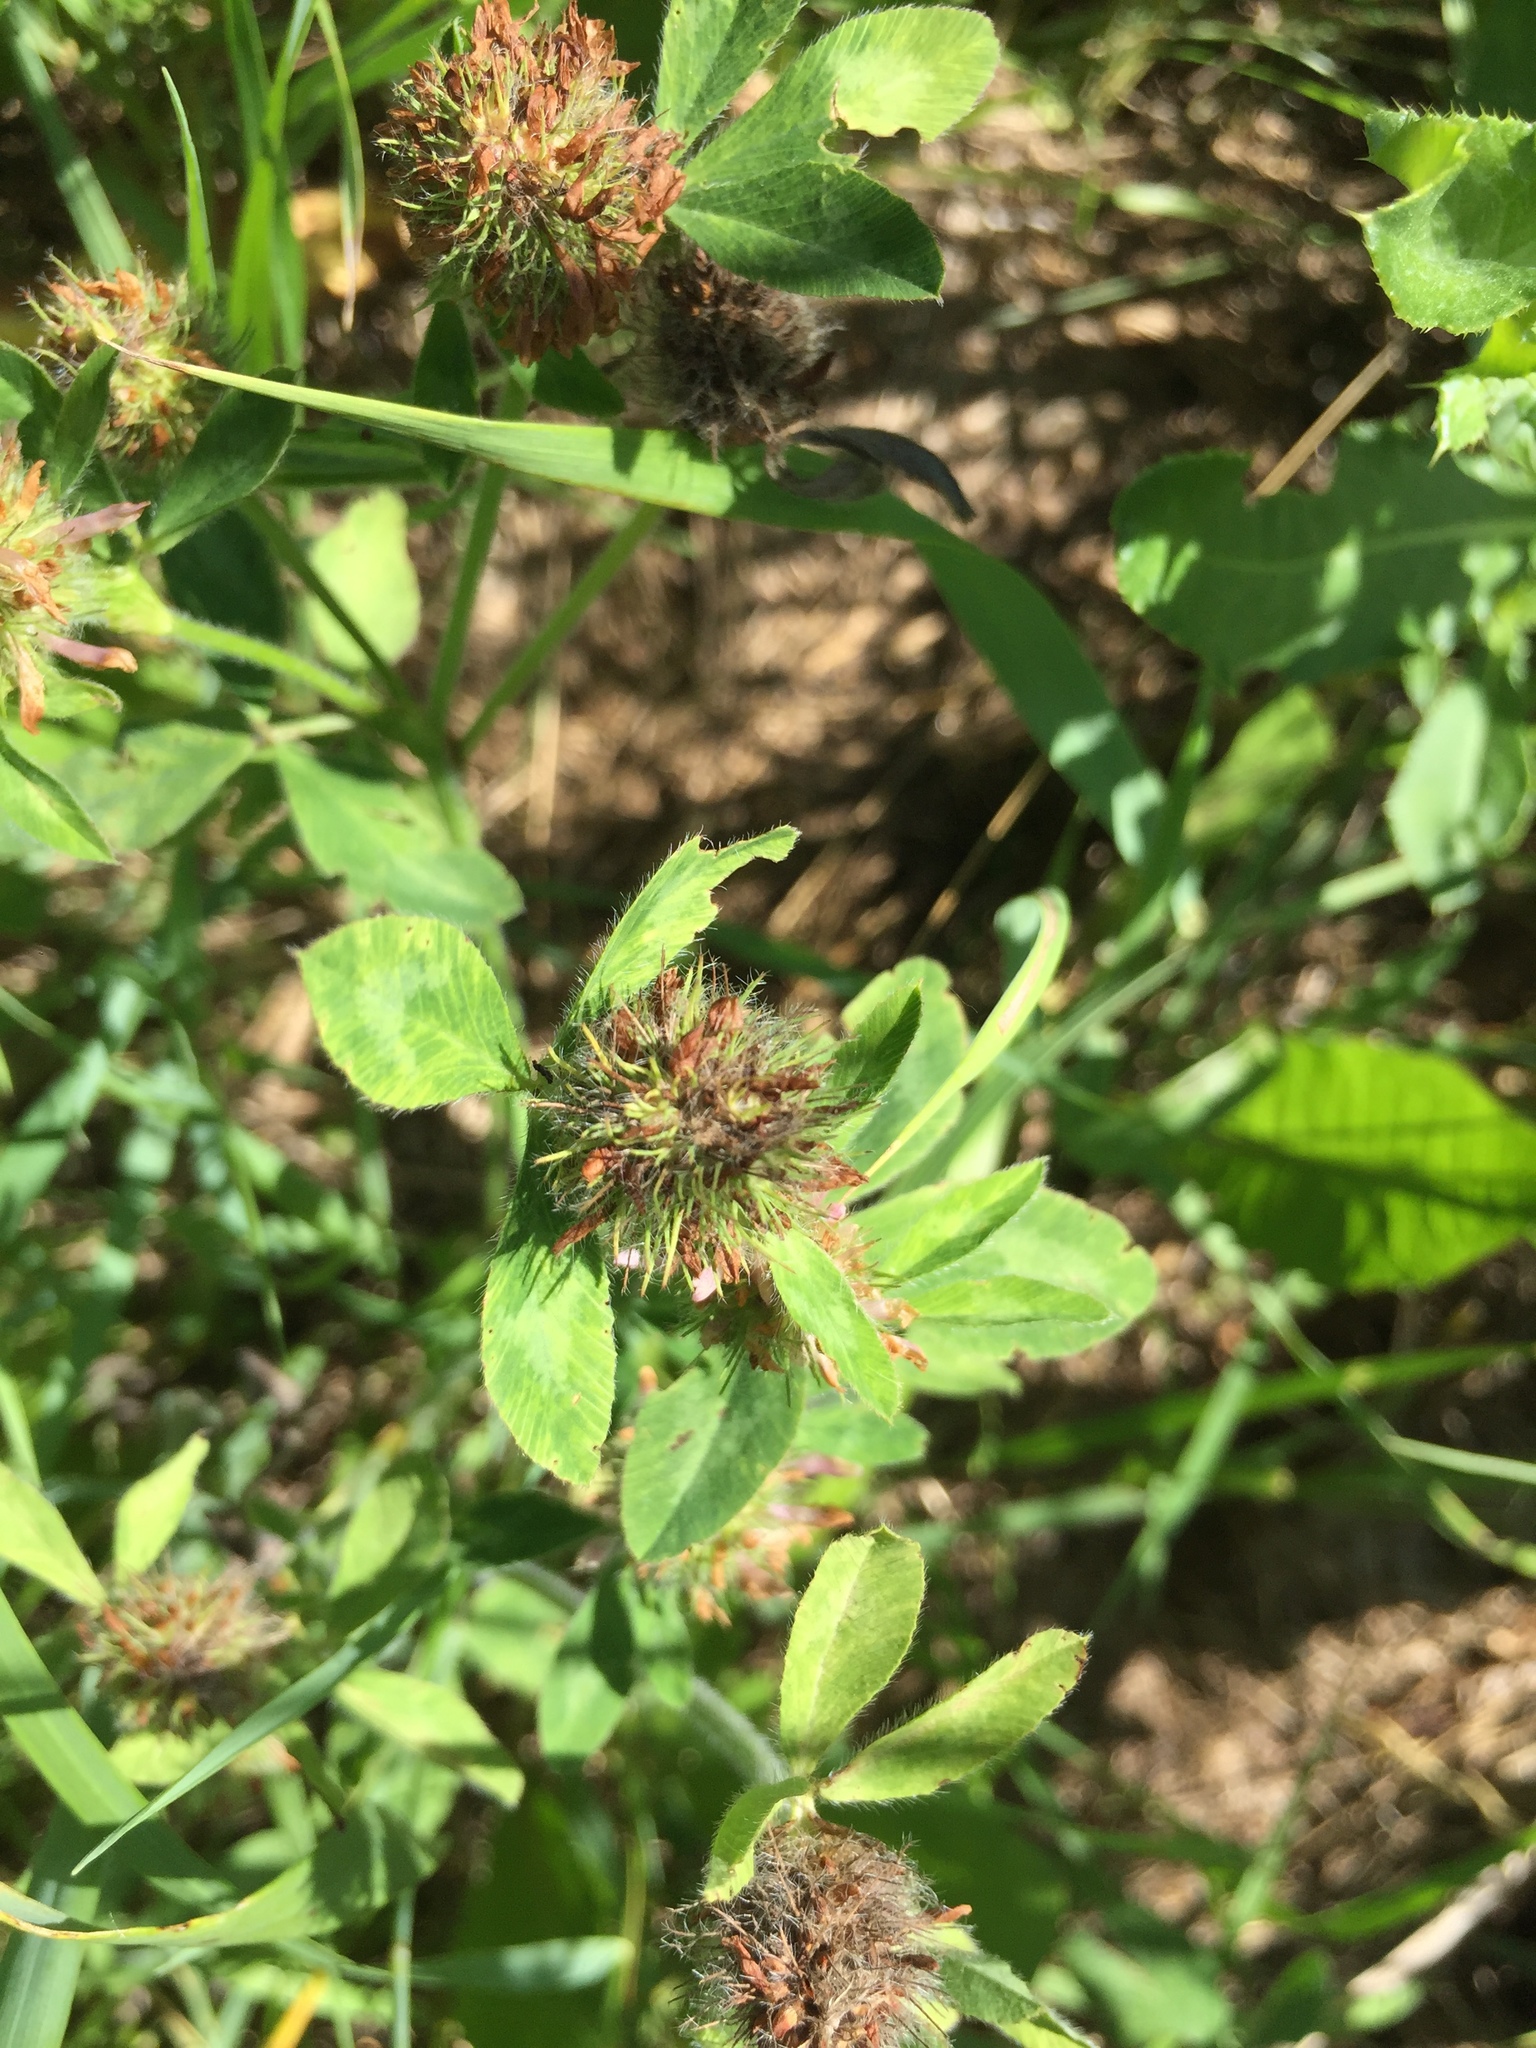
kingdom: Plantae
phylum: Tracheophyta
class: Magnoliopsida
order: Fabales
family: Fabaceae
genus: Trifolium
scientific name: Trifolium pratense
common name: Red clover
